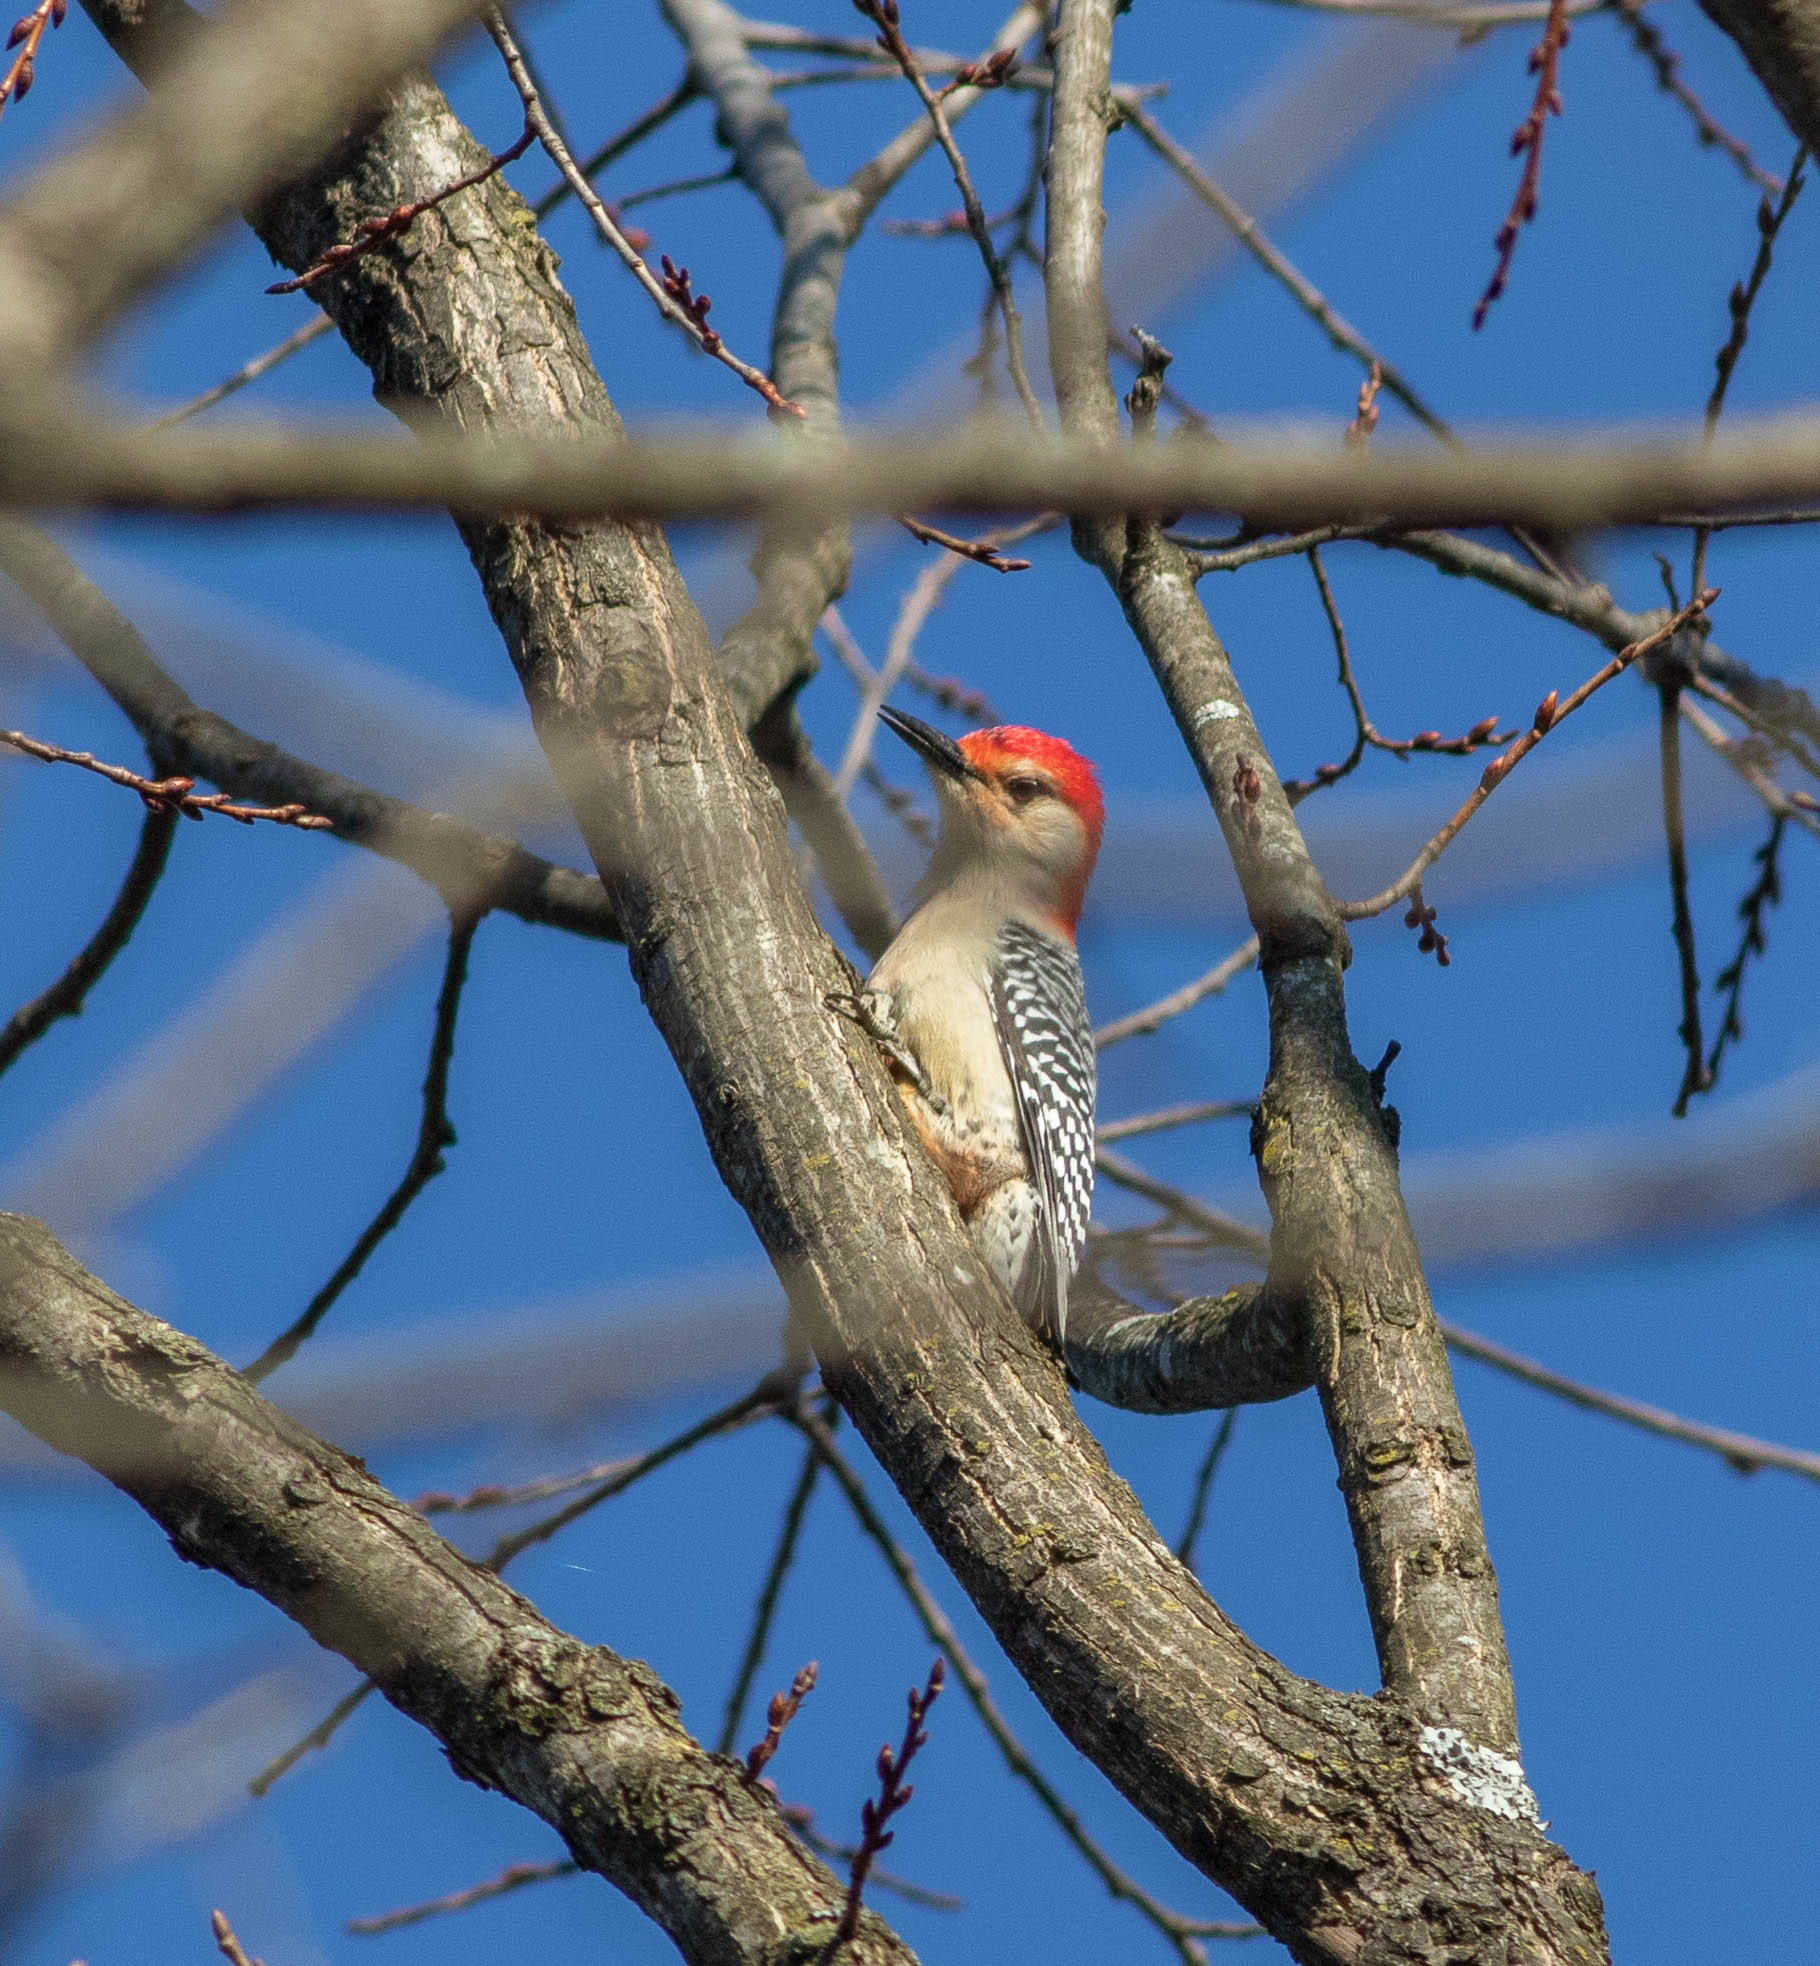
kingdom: Animalia
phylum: Chordata
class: Aves
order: Piciformes
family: Picidae
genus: Melanerpes
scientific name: Melanerpes carolinus
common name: Red-bellied woodpecker
